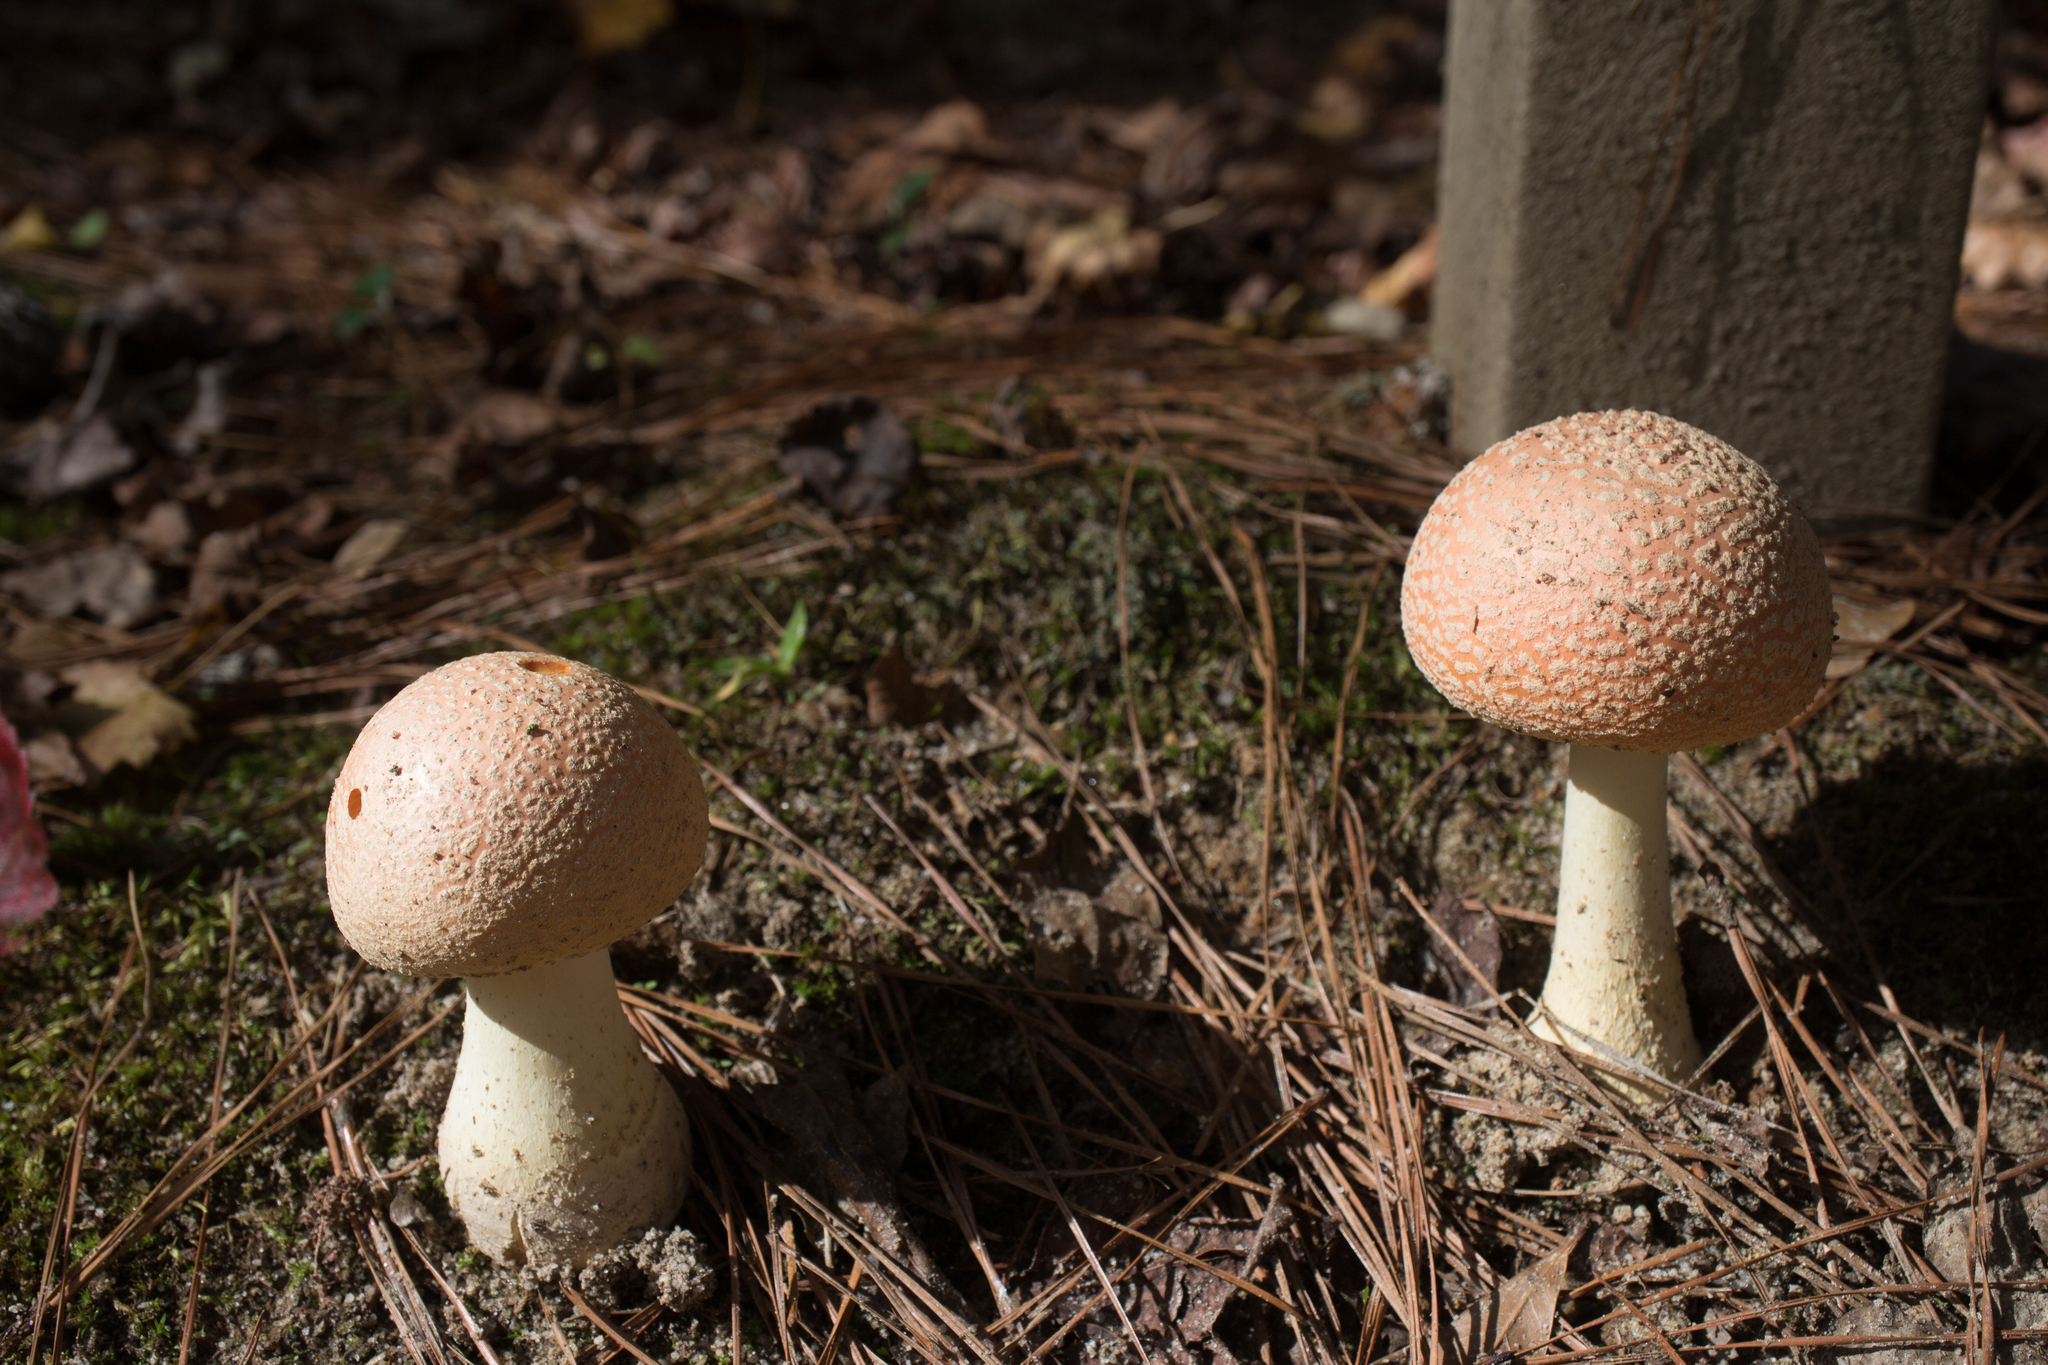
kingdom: Fungi
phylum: Basidiomycota
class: Agaricomycetes
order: Agaricales
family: Amanitaceae
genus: Amanita
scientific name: Amanita persicina
